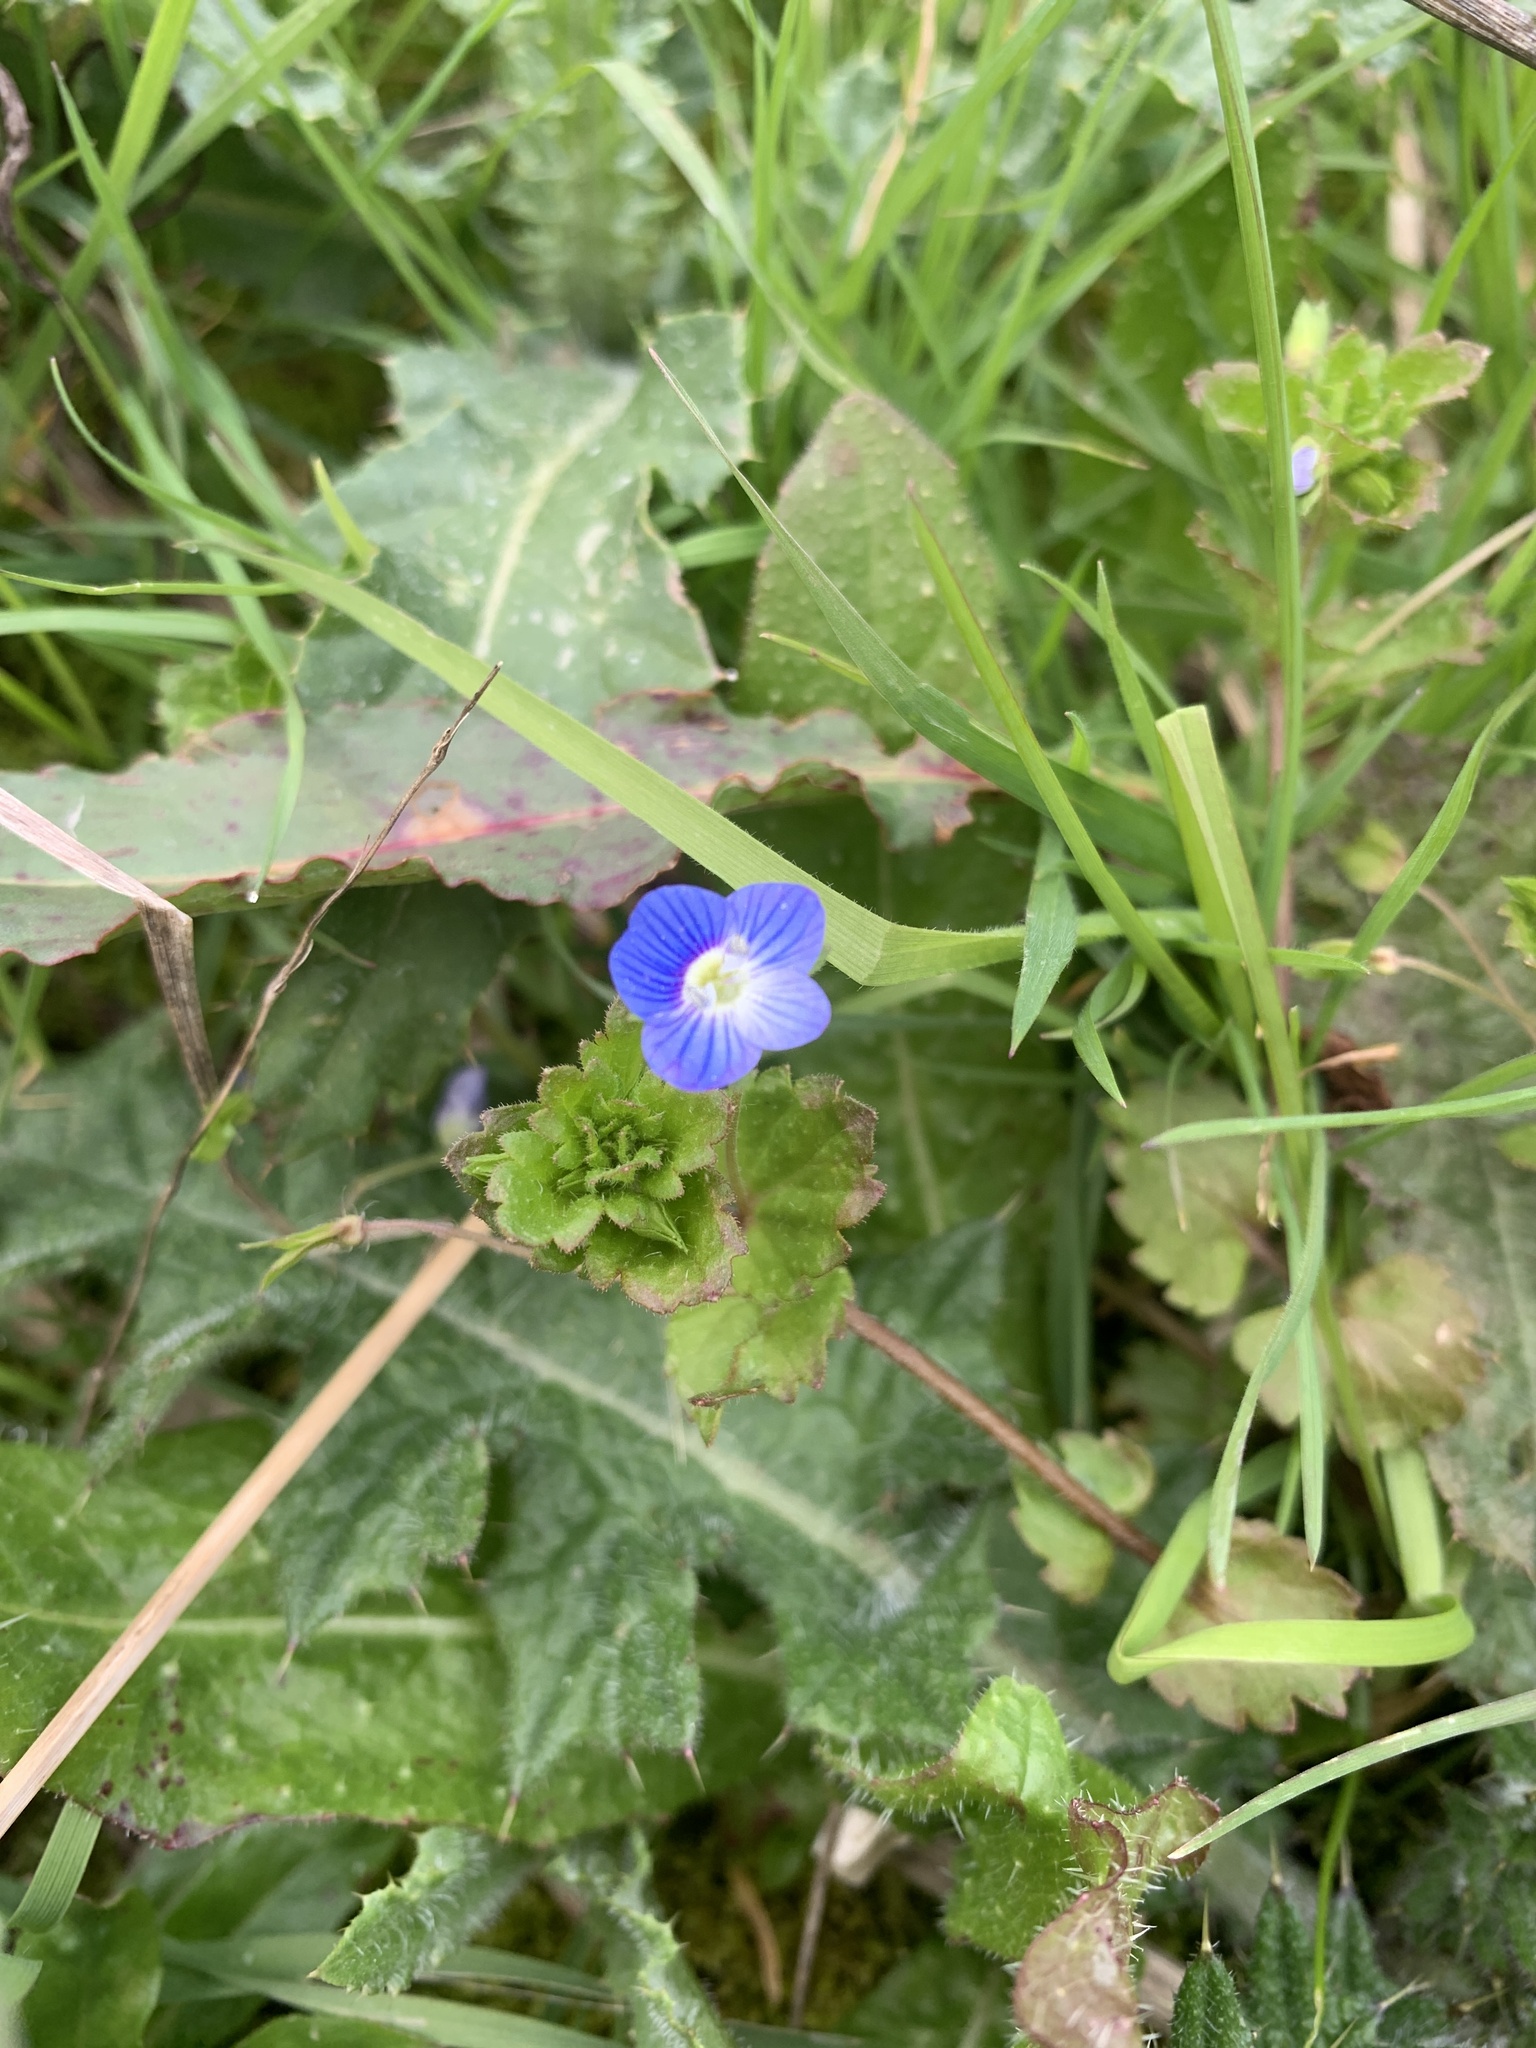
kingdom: Plantae
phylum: Tracheophyta
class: Magnoliopsida
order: Lamiales
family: Plantaginaceae
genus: Veronica
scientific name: Veronica persica
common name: Common field-speedwell
